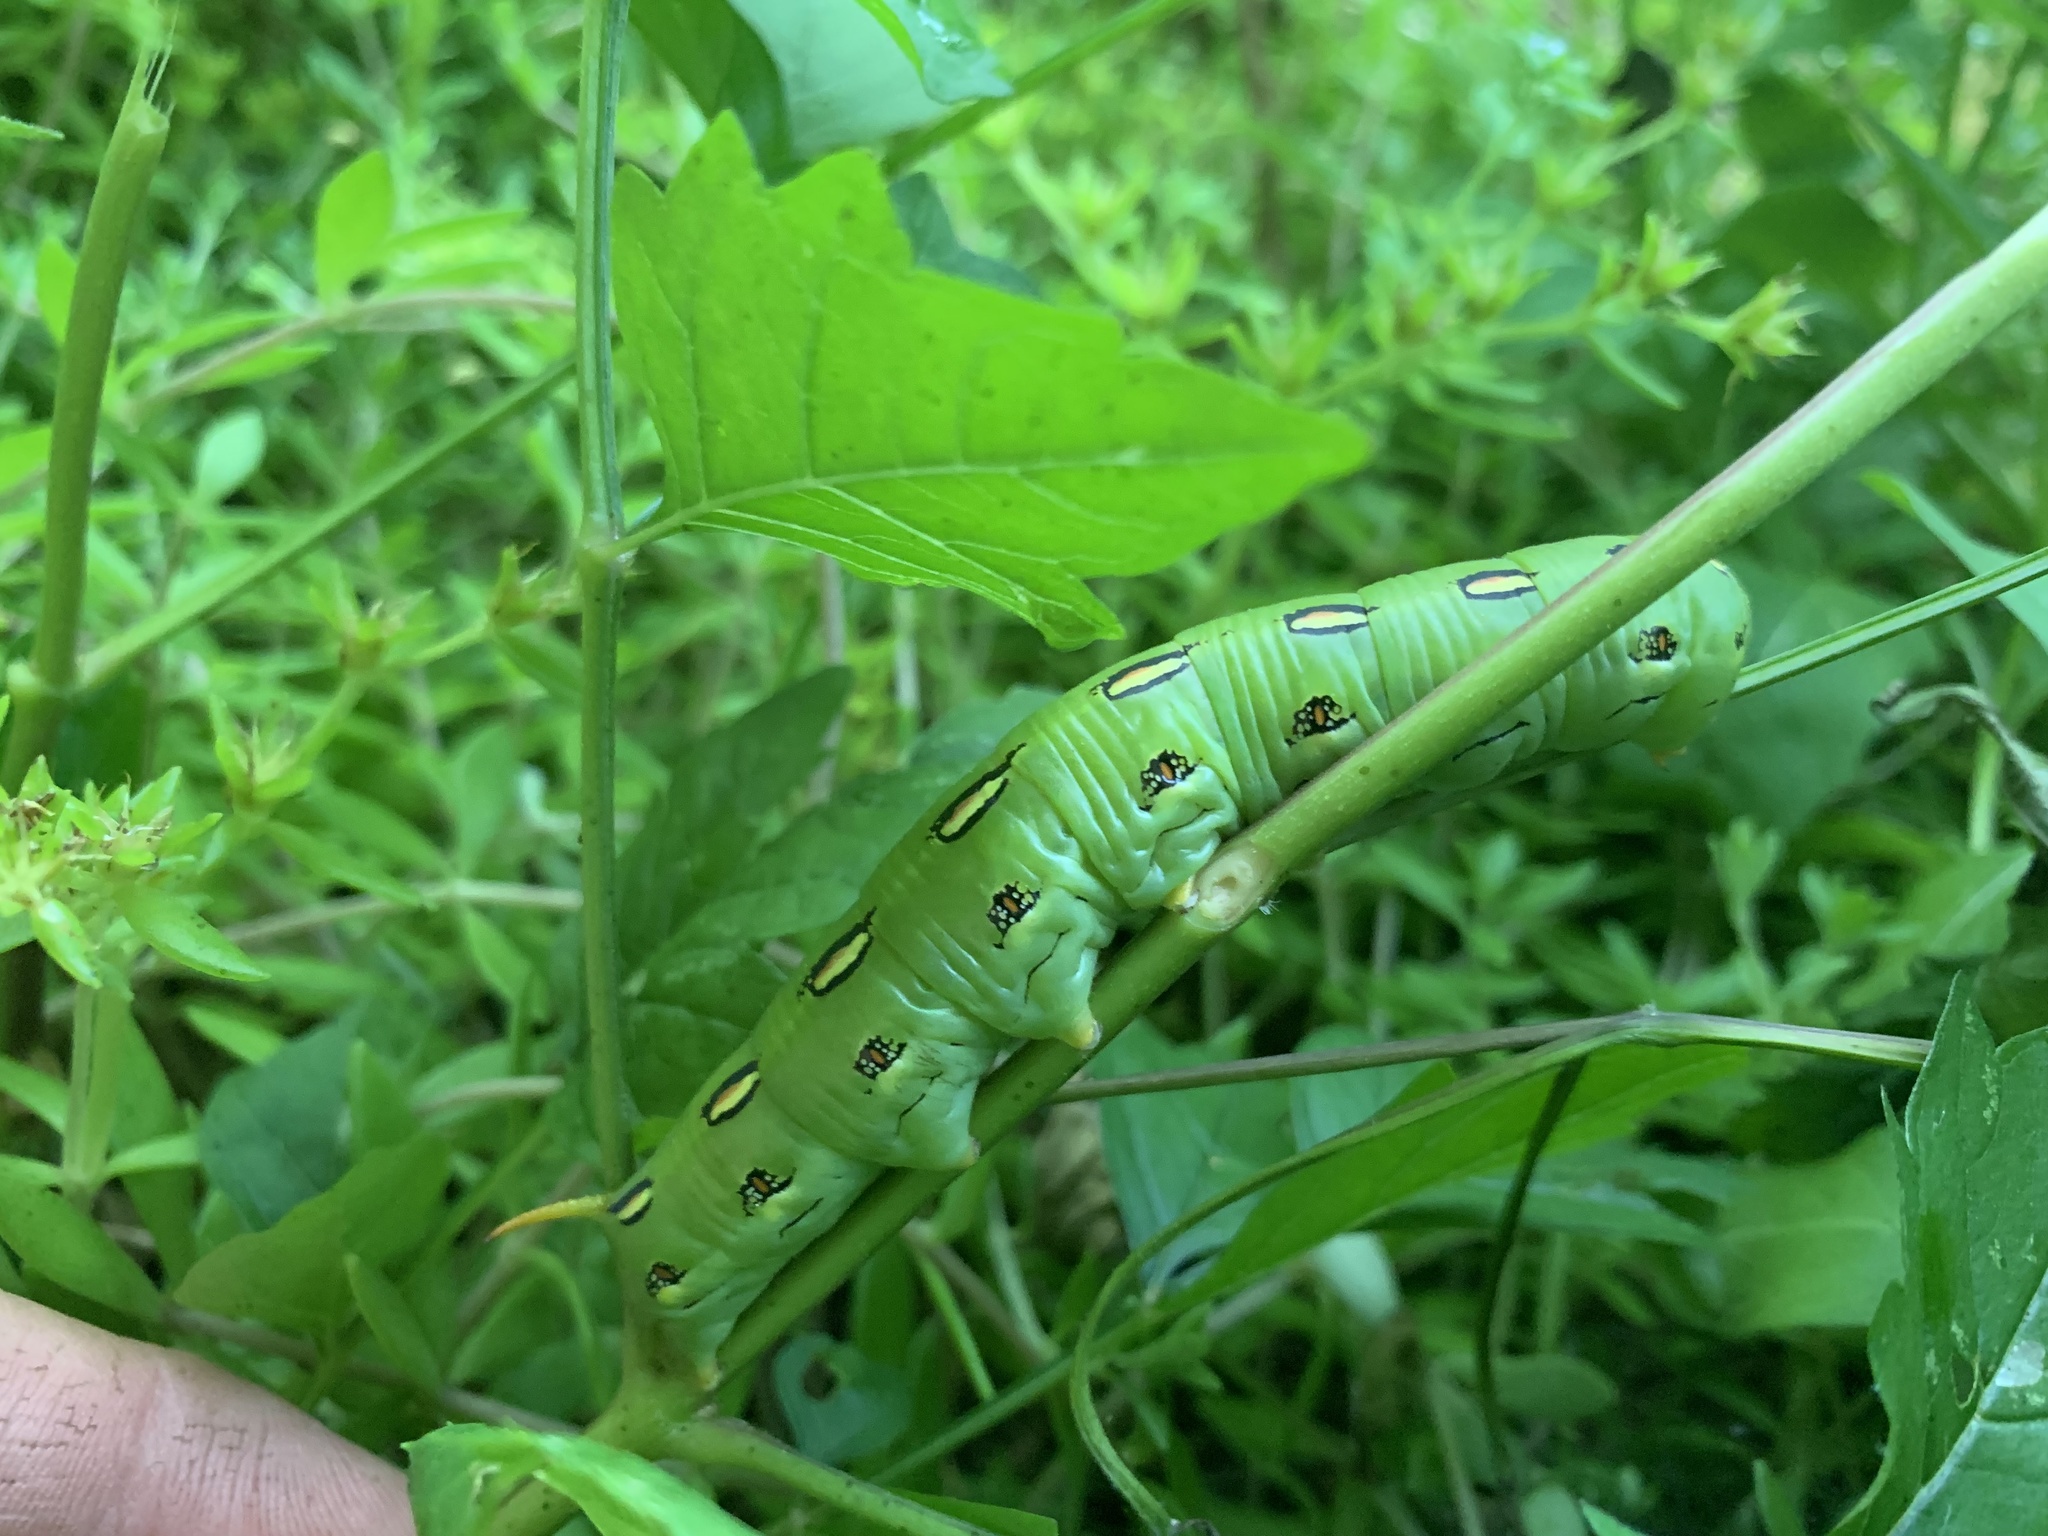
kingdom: Animalia
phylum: Arthropoda
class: Insecta
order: Lepidoptera
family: Sphingidae
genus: Hyles
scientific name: Hyles lineata
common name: White-lined sphinx
